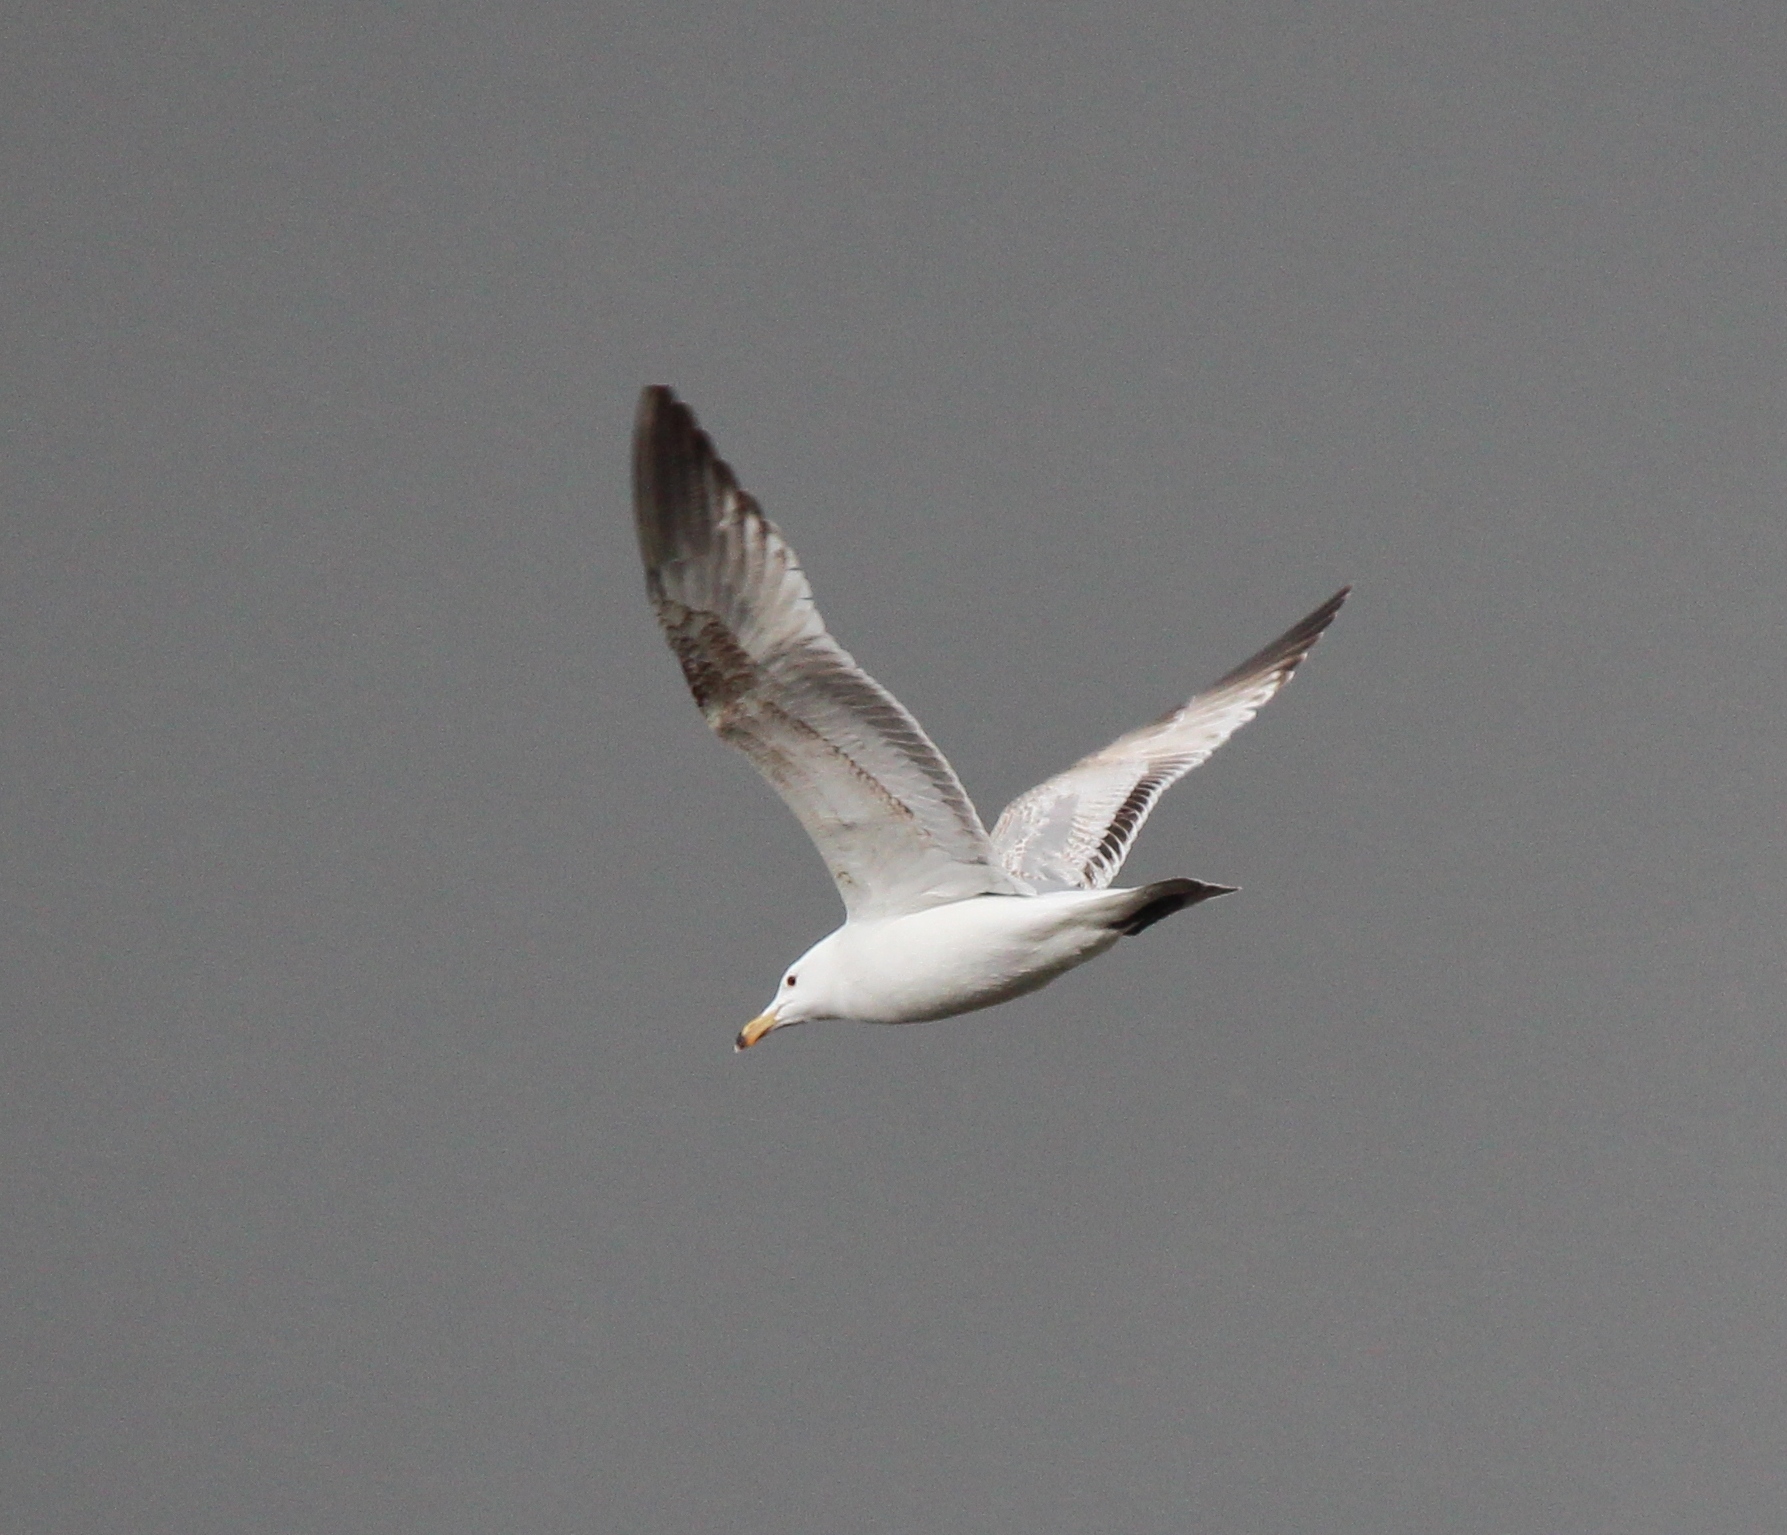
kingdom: Animalia
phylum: Chordata
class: Aves
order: Charadriiformes
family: Laridae
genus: Larus
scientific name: Larus vegae
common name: Vega gull
